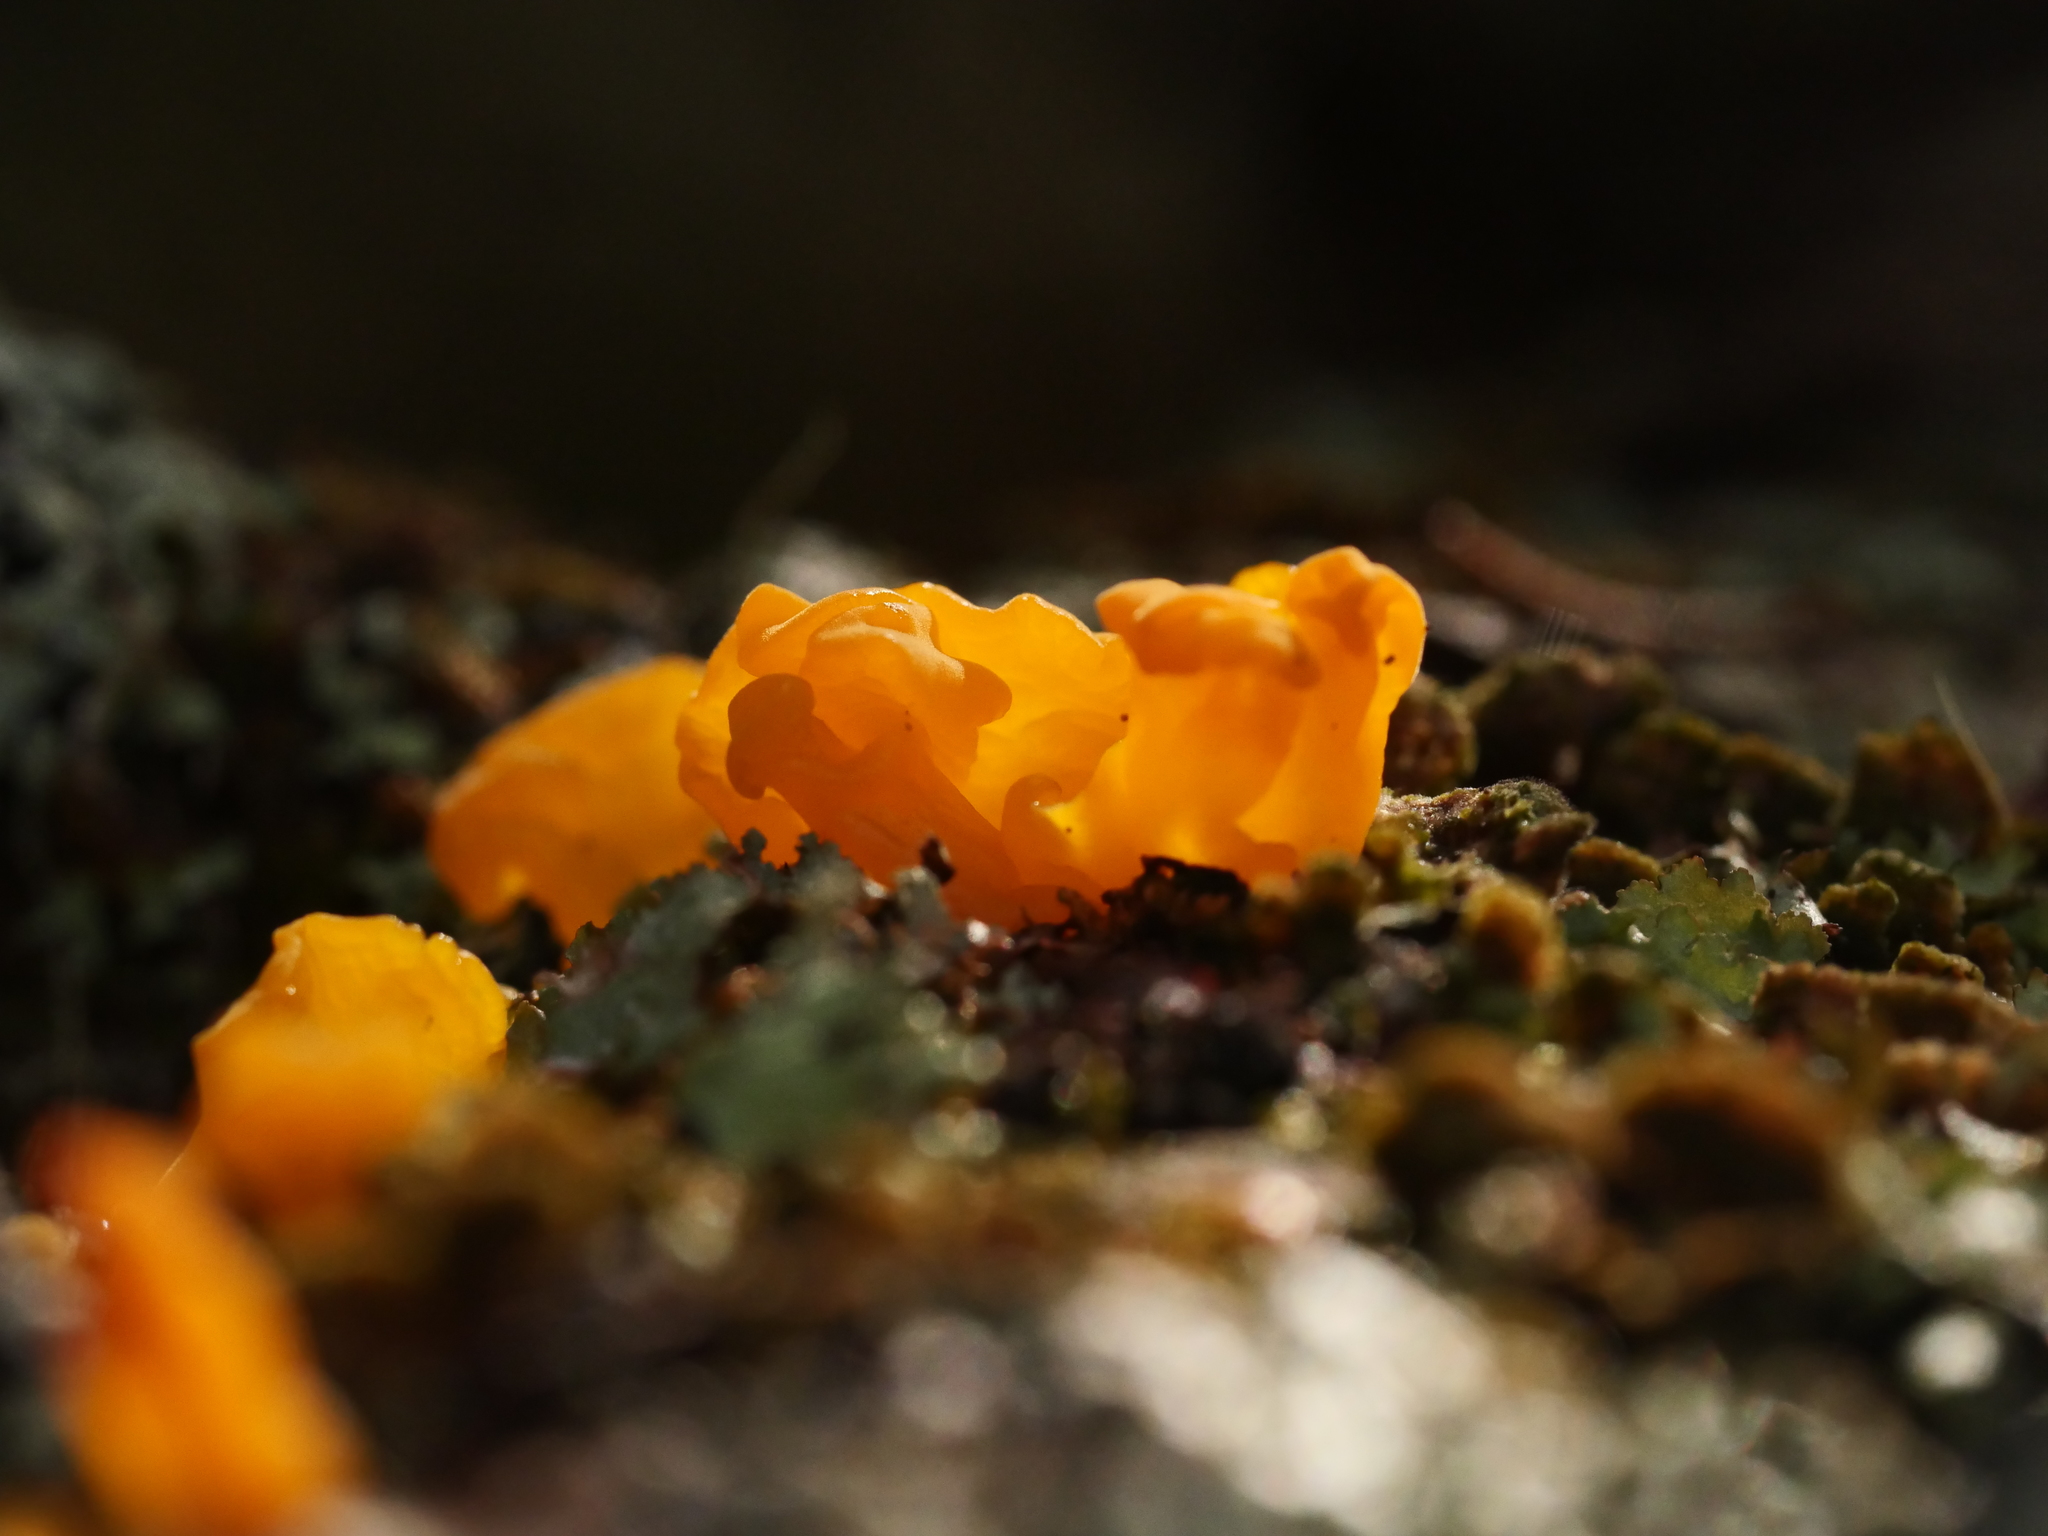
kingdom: Fungi
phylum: Basidiomycota
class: Tremellomycetes
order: Tremellales
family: Tremellaceae
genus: Tremella
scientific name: Tremella mesenterica
